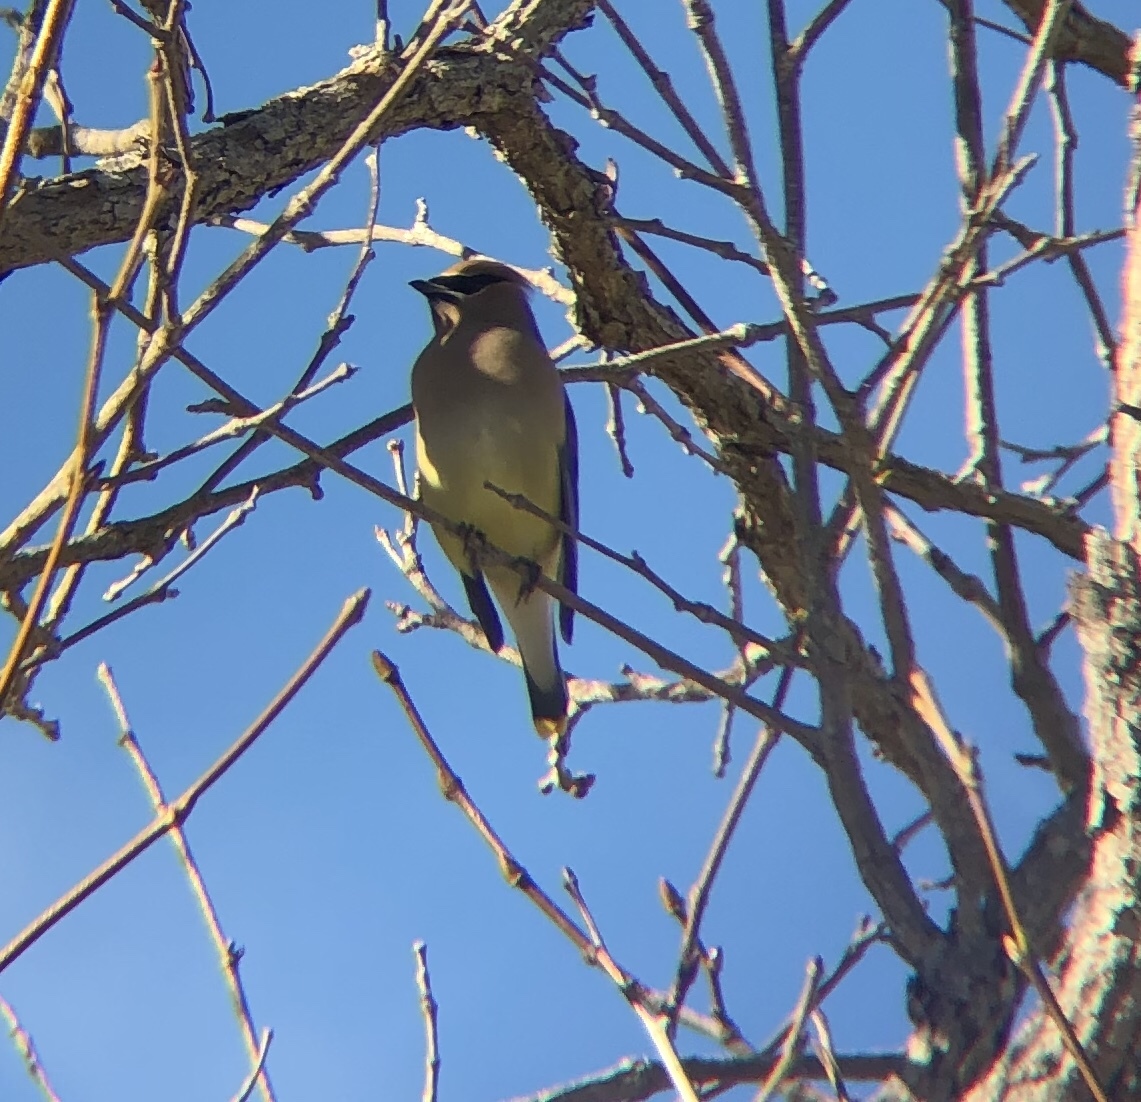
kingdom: Animalia
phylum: Chordata
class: Aves
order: Passeriformes
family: Bombycillidae
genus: Bombycilla
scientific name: Bombycilla cedrorum
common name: Cedar waxwing
